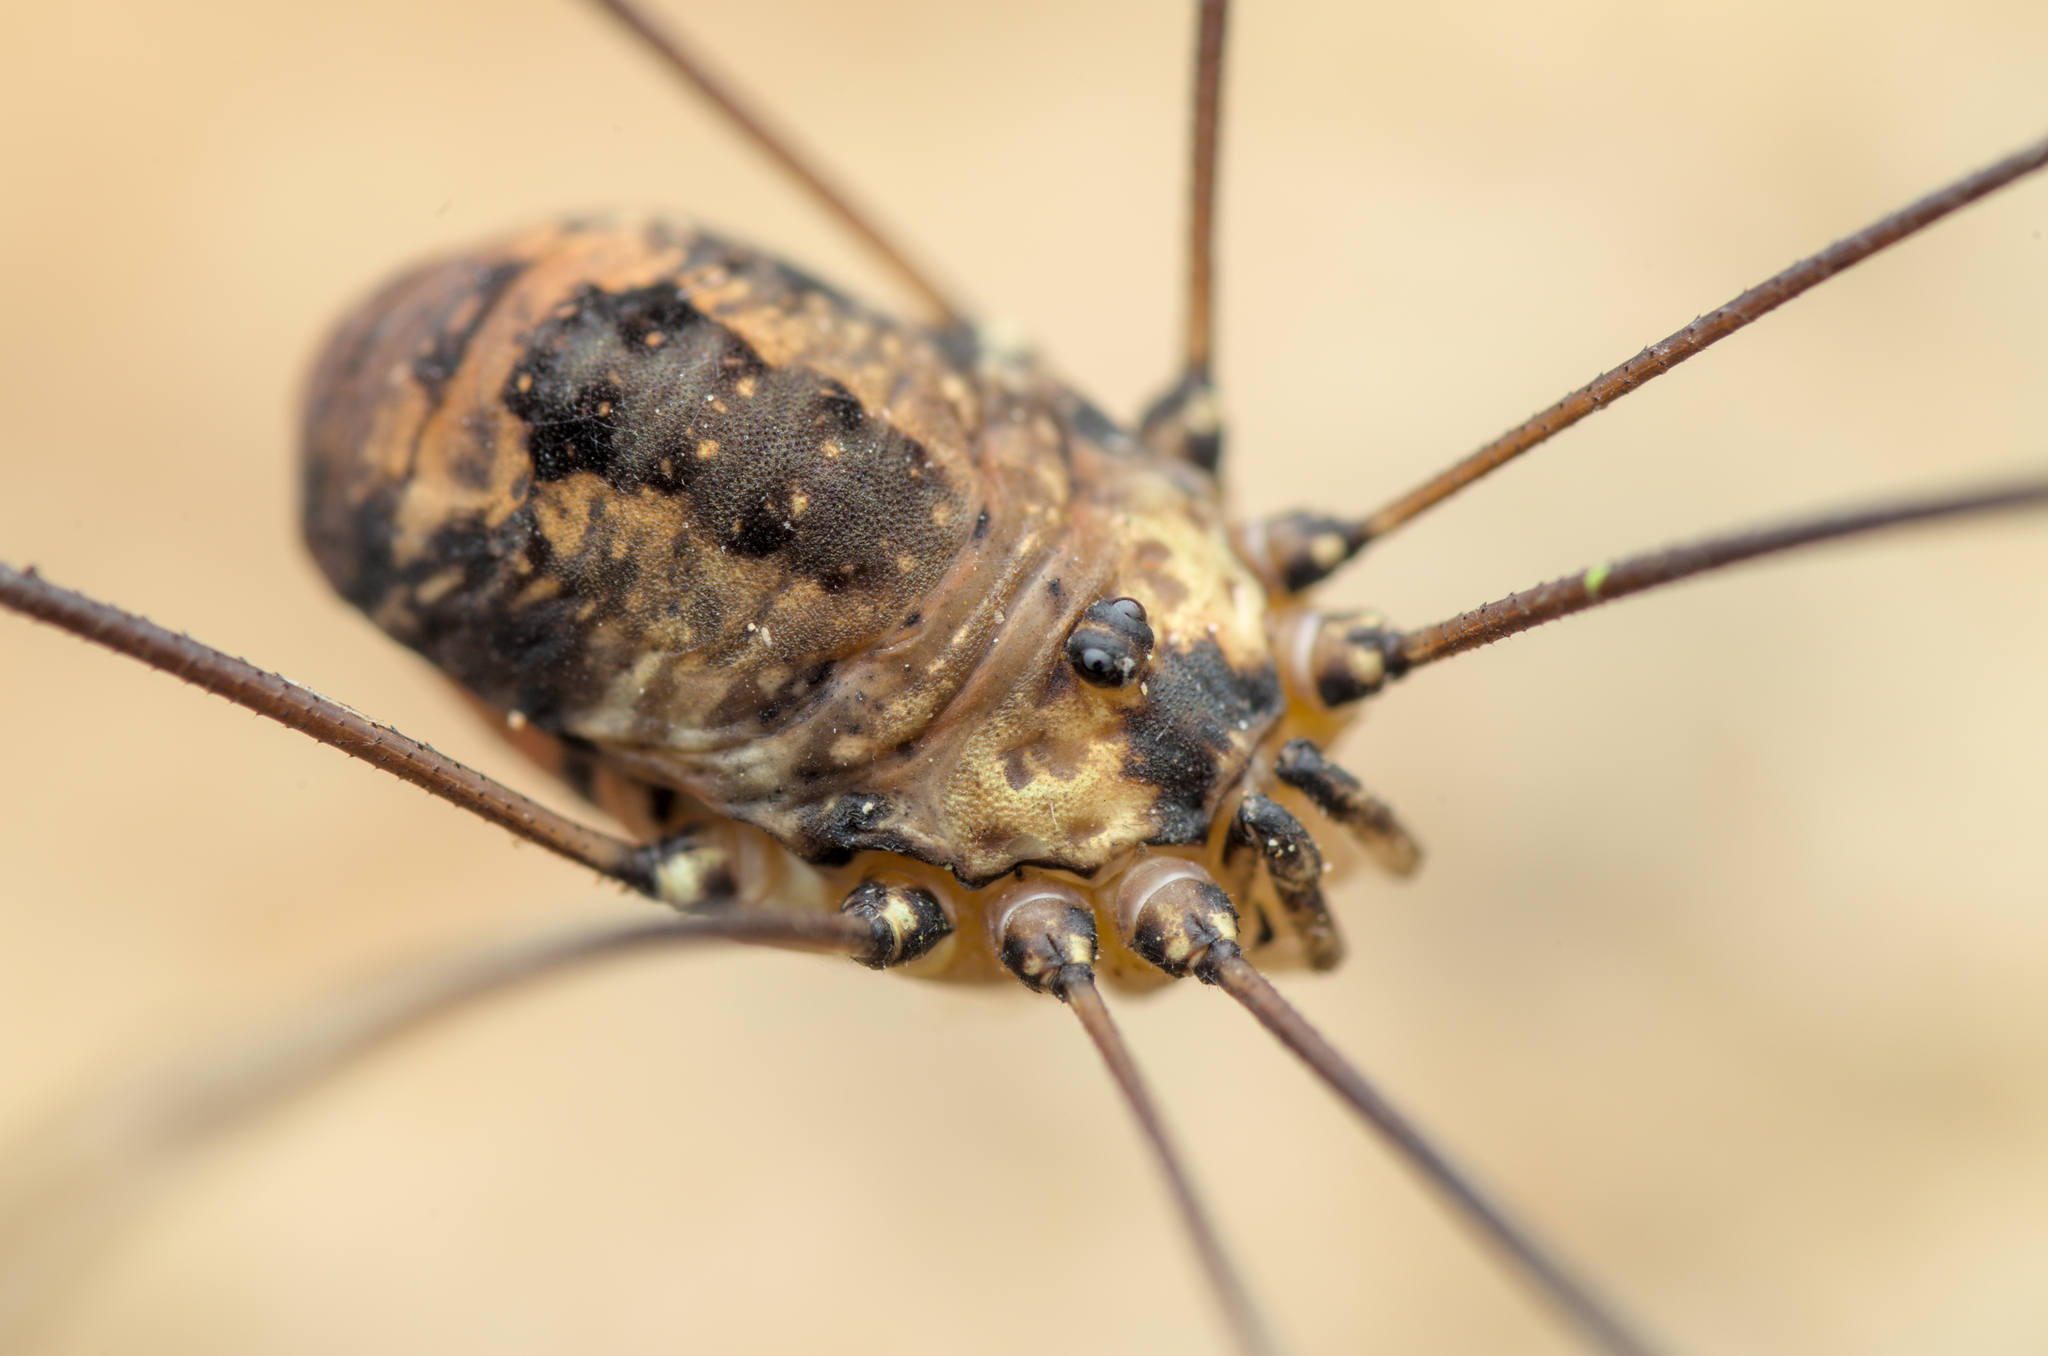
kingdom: Animalia
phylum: Arthropoda
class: Arachnida
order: Opiliones
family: Sclerosomatidae
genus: Leiobunum
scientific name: Leiobunum rotundum
